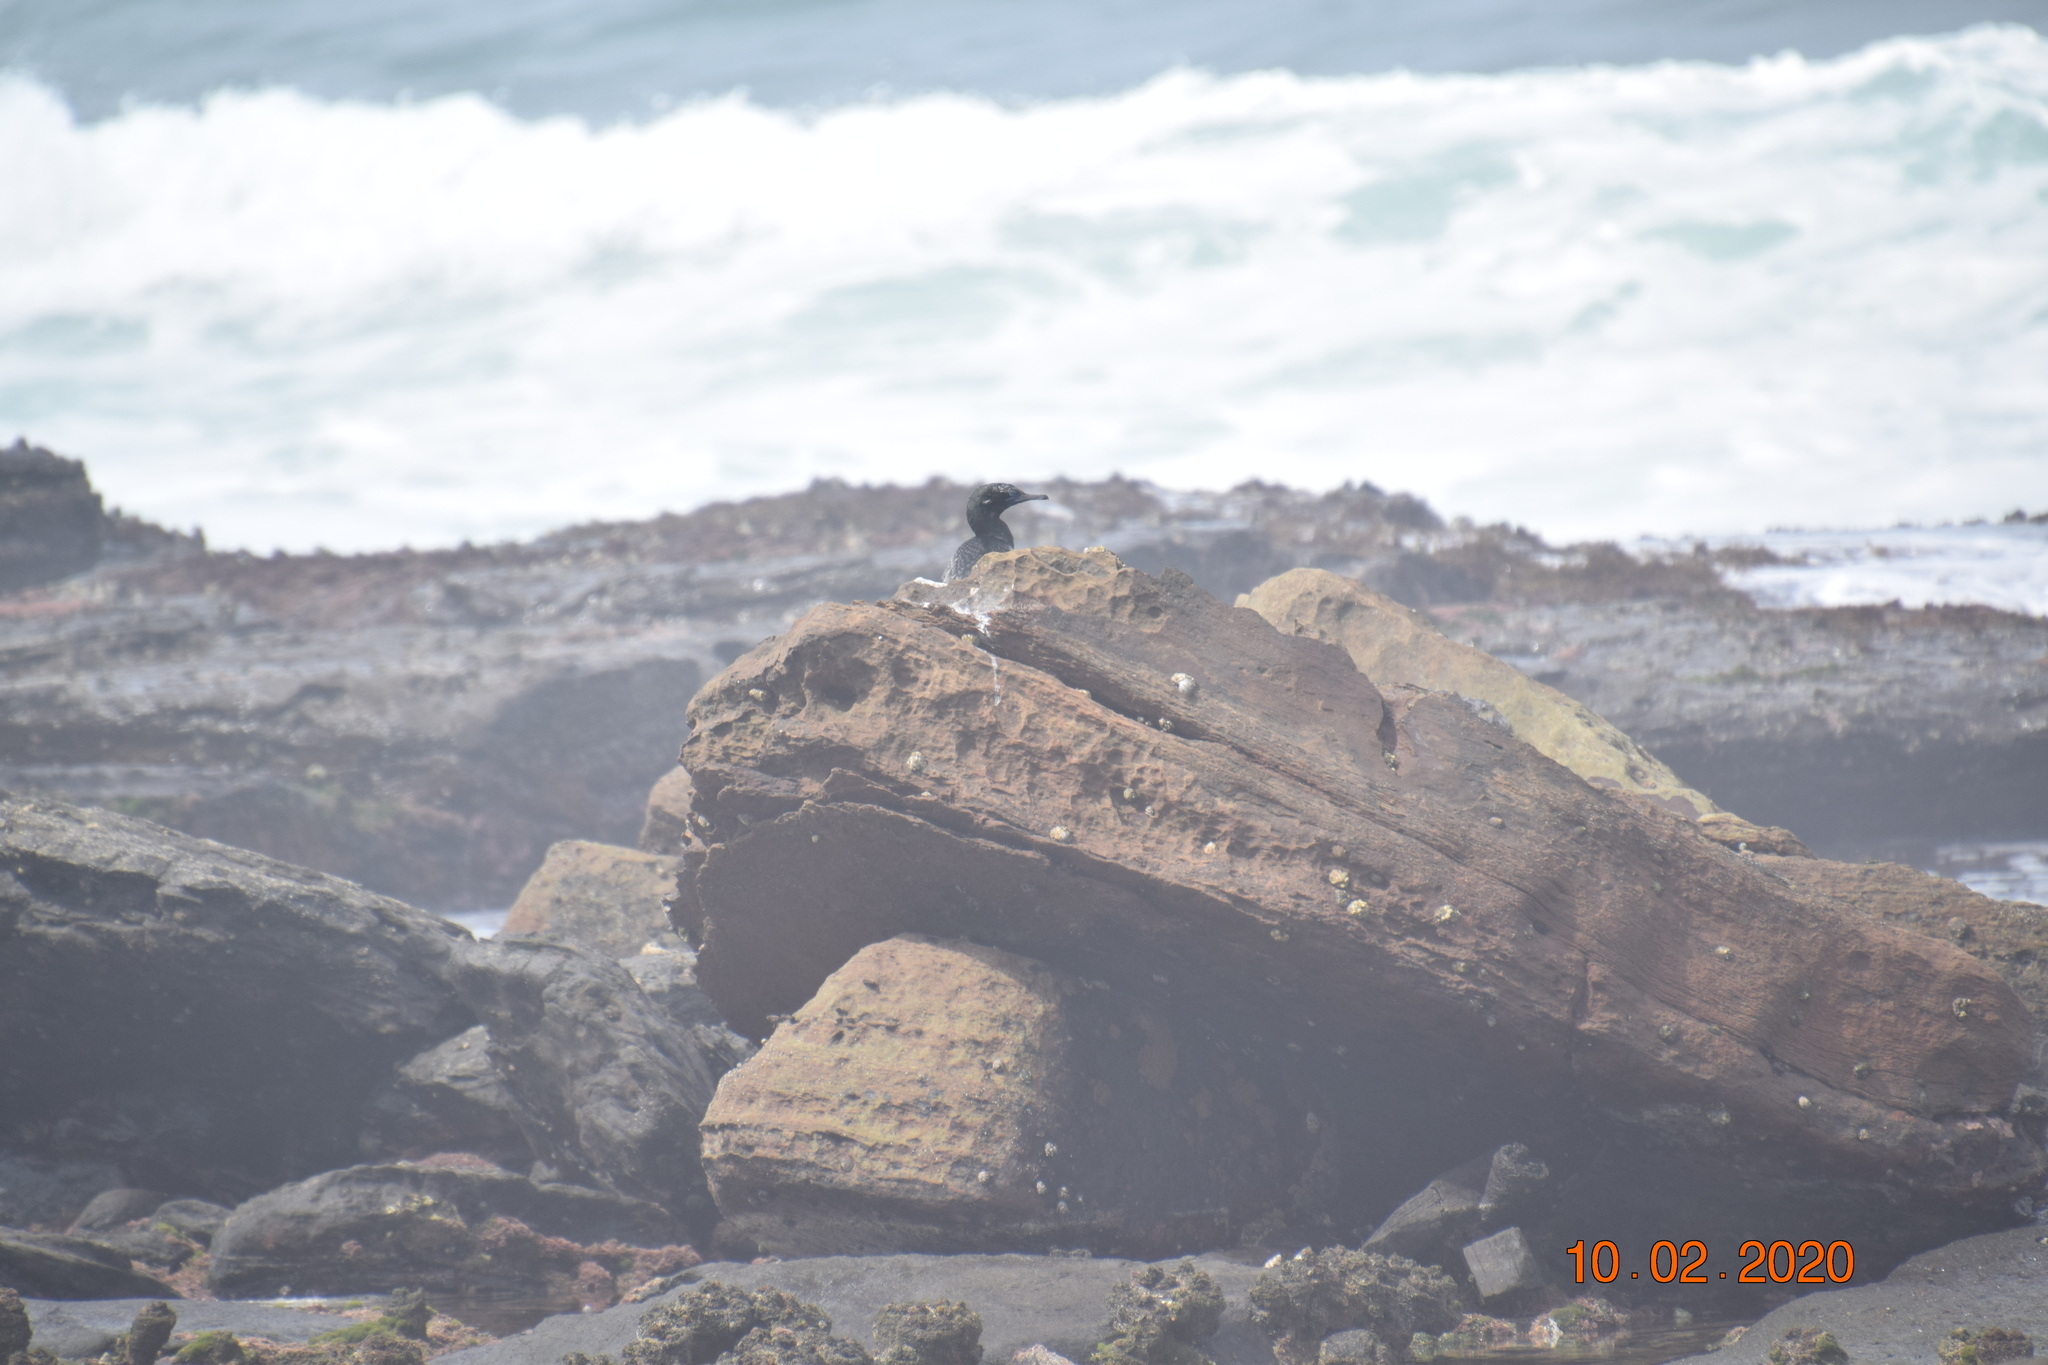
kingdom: Animalia
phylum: Chordata
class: Aves
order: Suliformes
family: Phalacrocoracidae
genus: Phalacrocorax
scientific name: Phalacrocorax sulcirostris
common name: Little black cormorant
